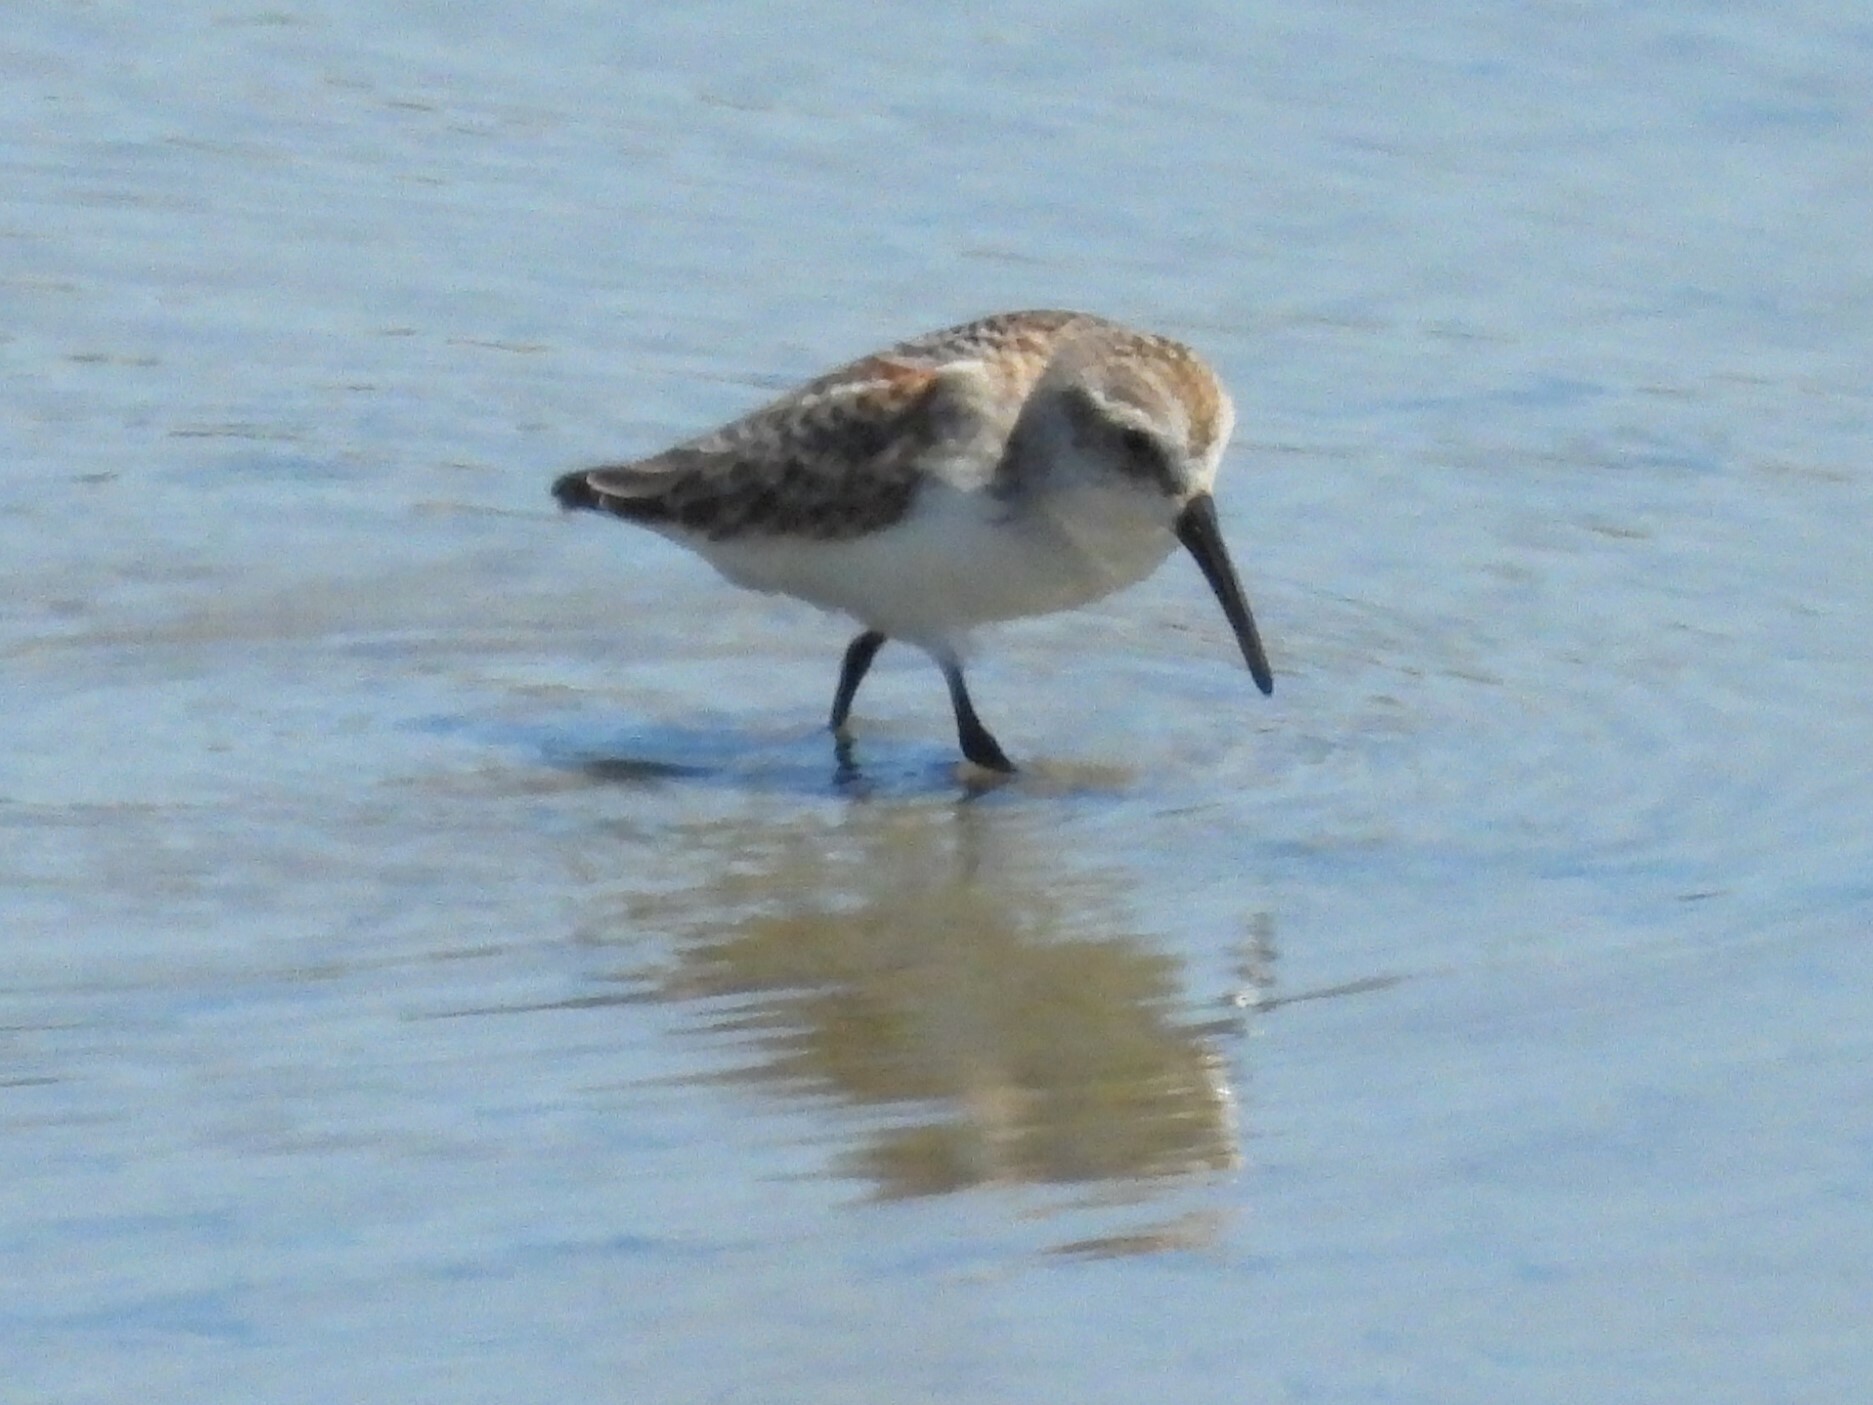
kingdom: Animalia
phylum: Chordata
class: Aves
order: Charadriiformes
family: Scolopacidae
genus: Calidris
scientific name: Calidris mauri
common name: Western sandpiper
